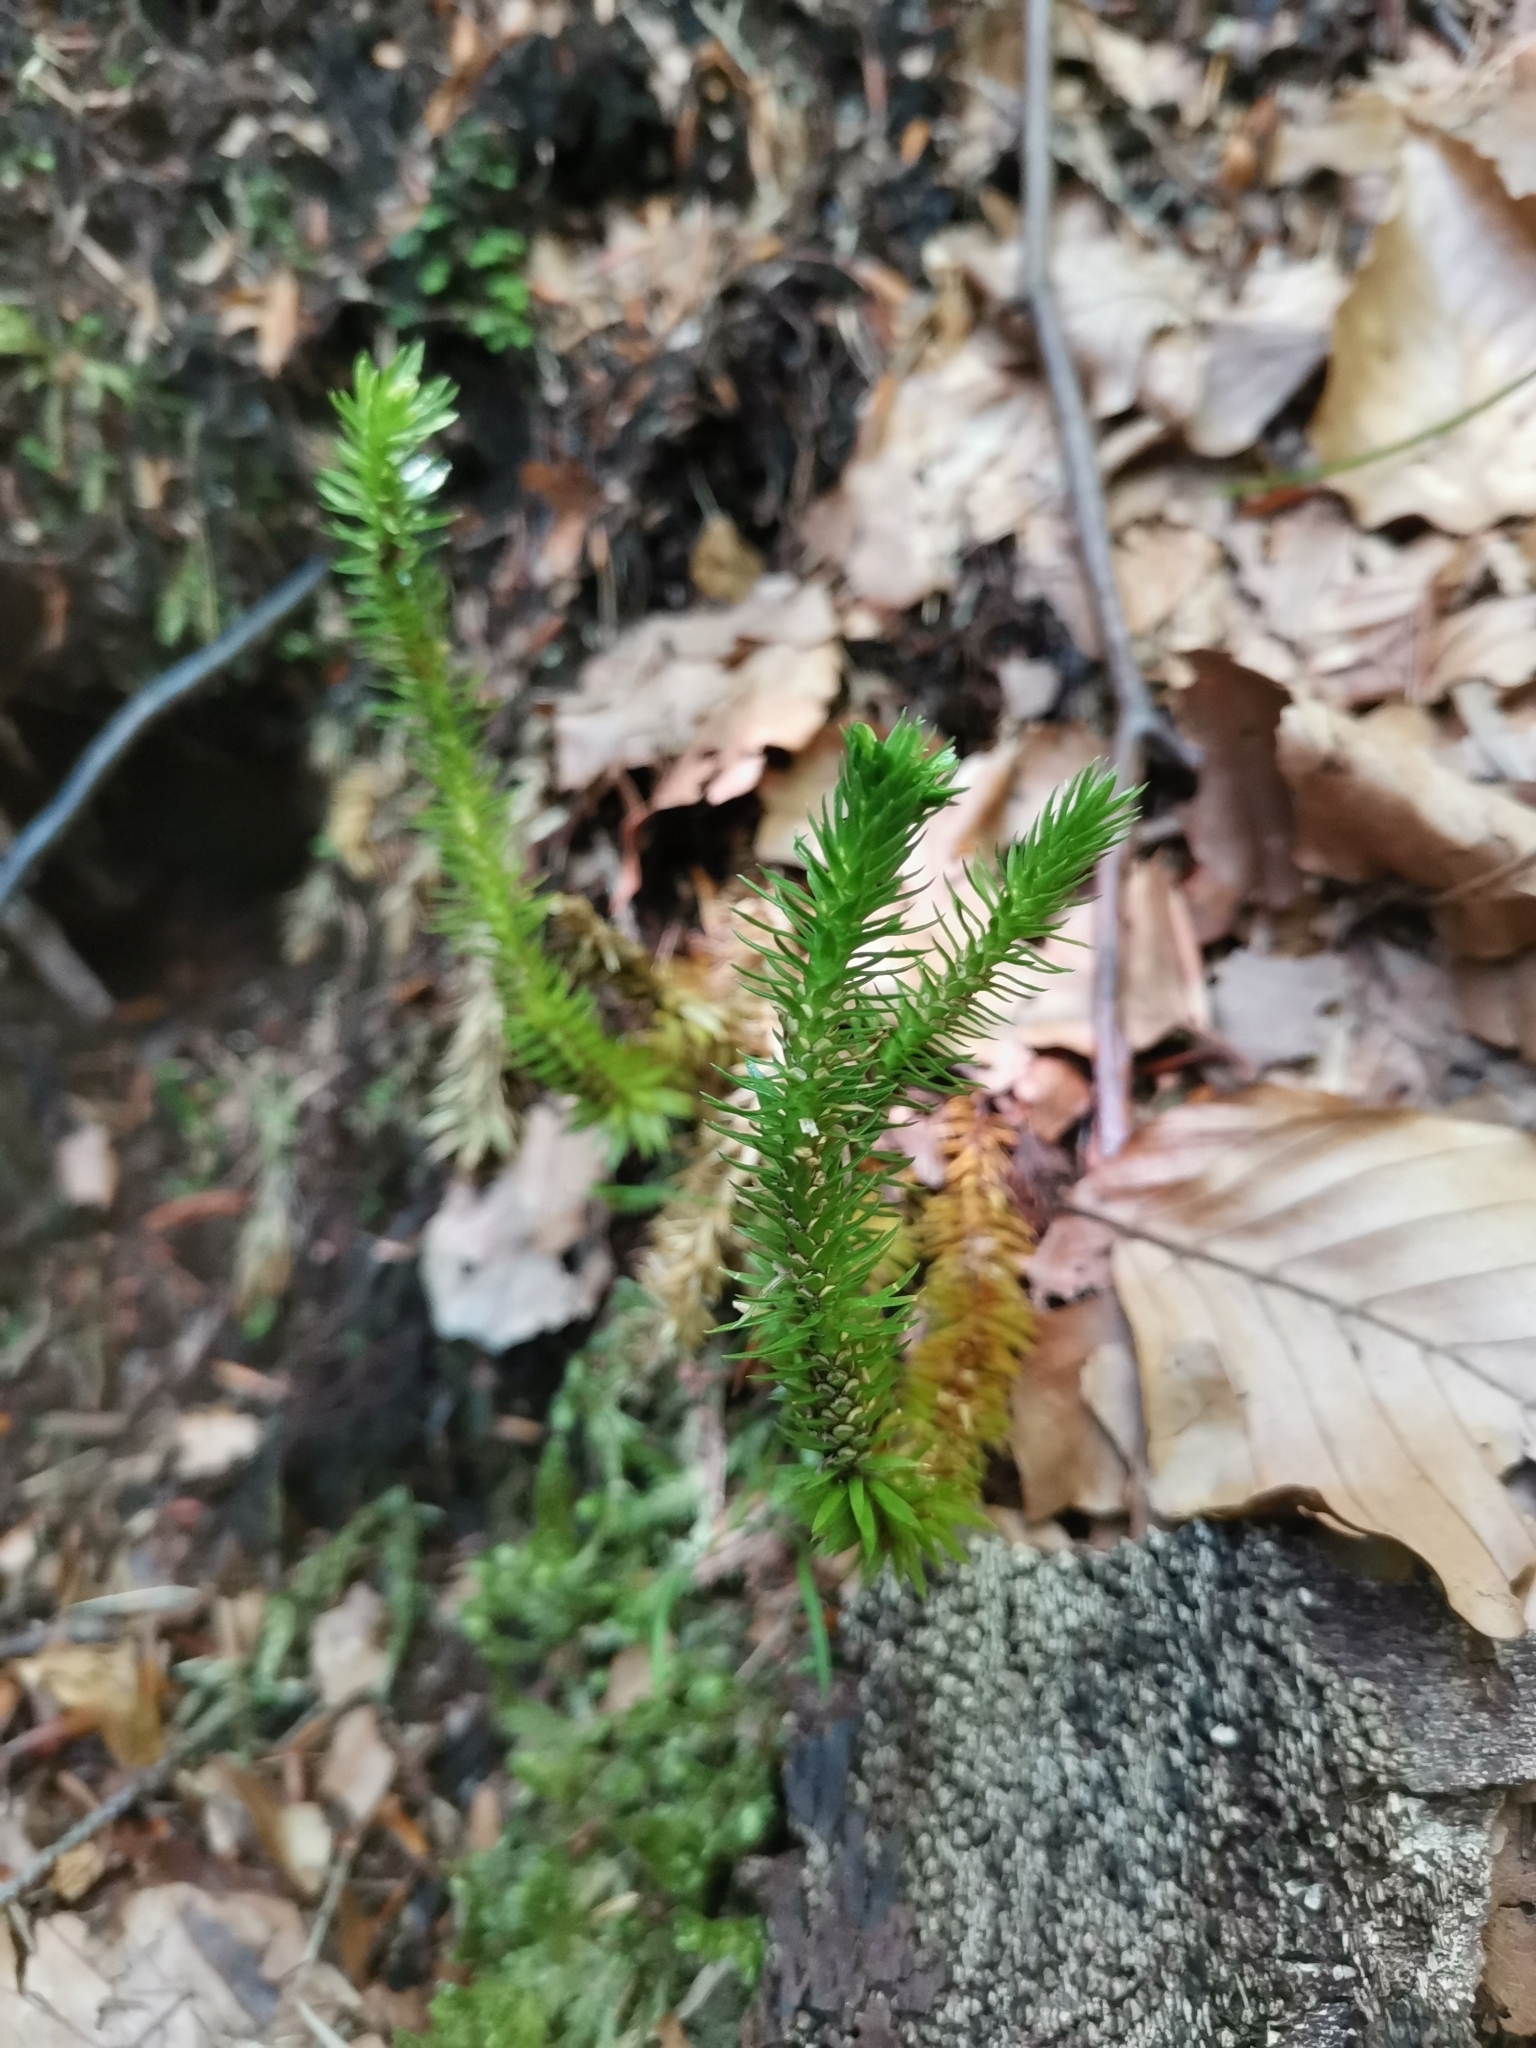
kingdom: Plantae
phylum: Tracheophyta
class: Lycopodiopsida
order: Lycopodiales
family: Lycopodiaceae
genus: Huperzia
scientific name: Huperzia selago
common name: Northern firmoss
